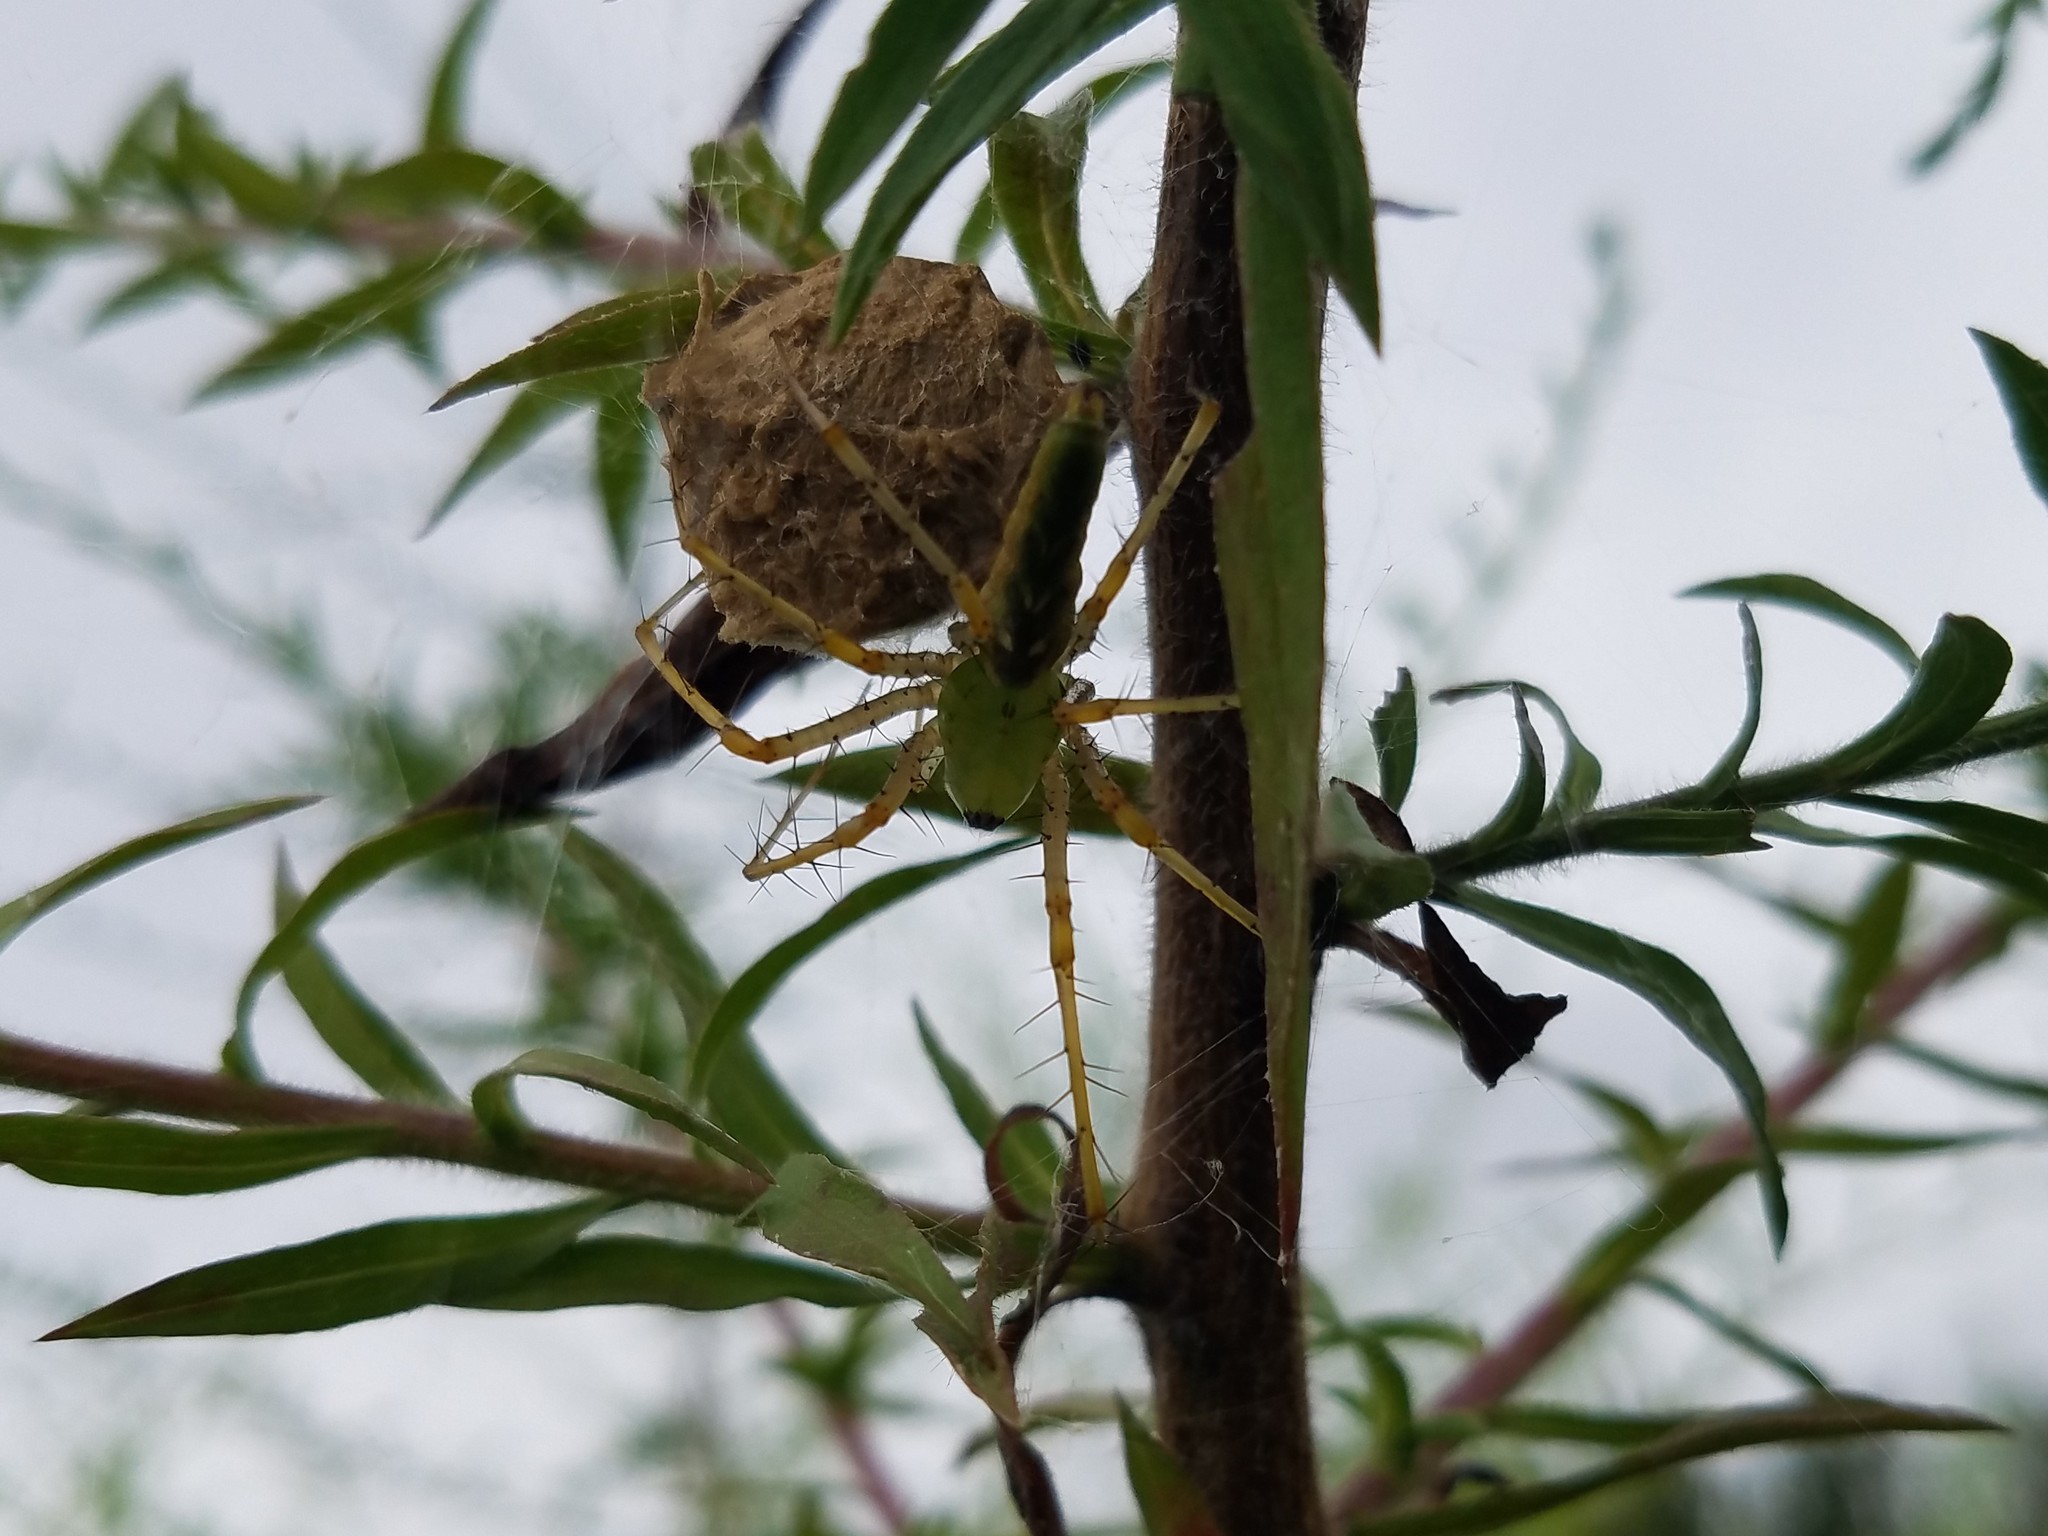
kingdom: Animalia
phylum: Arthropoda
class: Arachnida
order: Araneae
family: Oxyopidae
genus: Peucetia
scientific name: Peucetia viridans
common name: Lynx spiders
